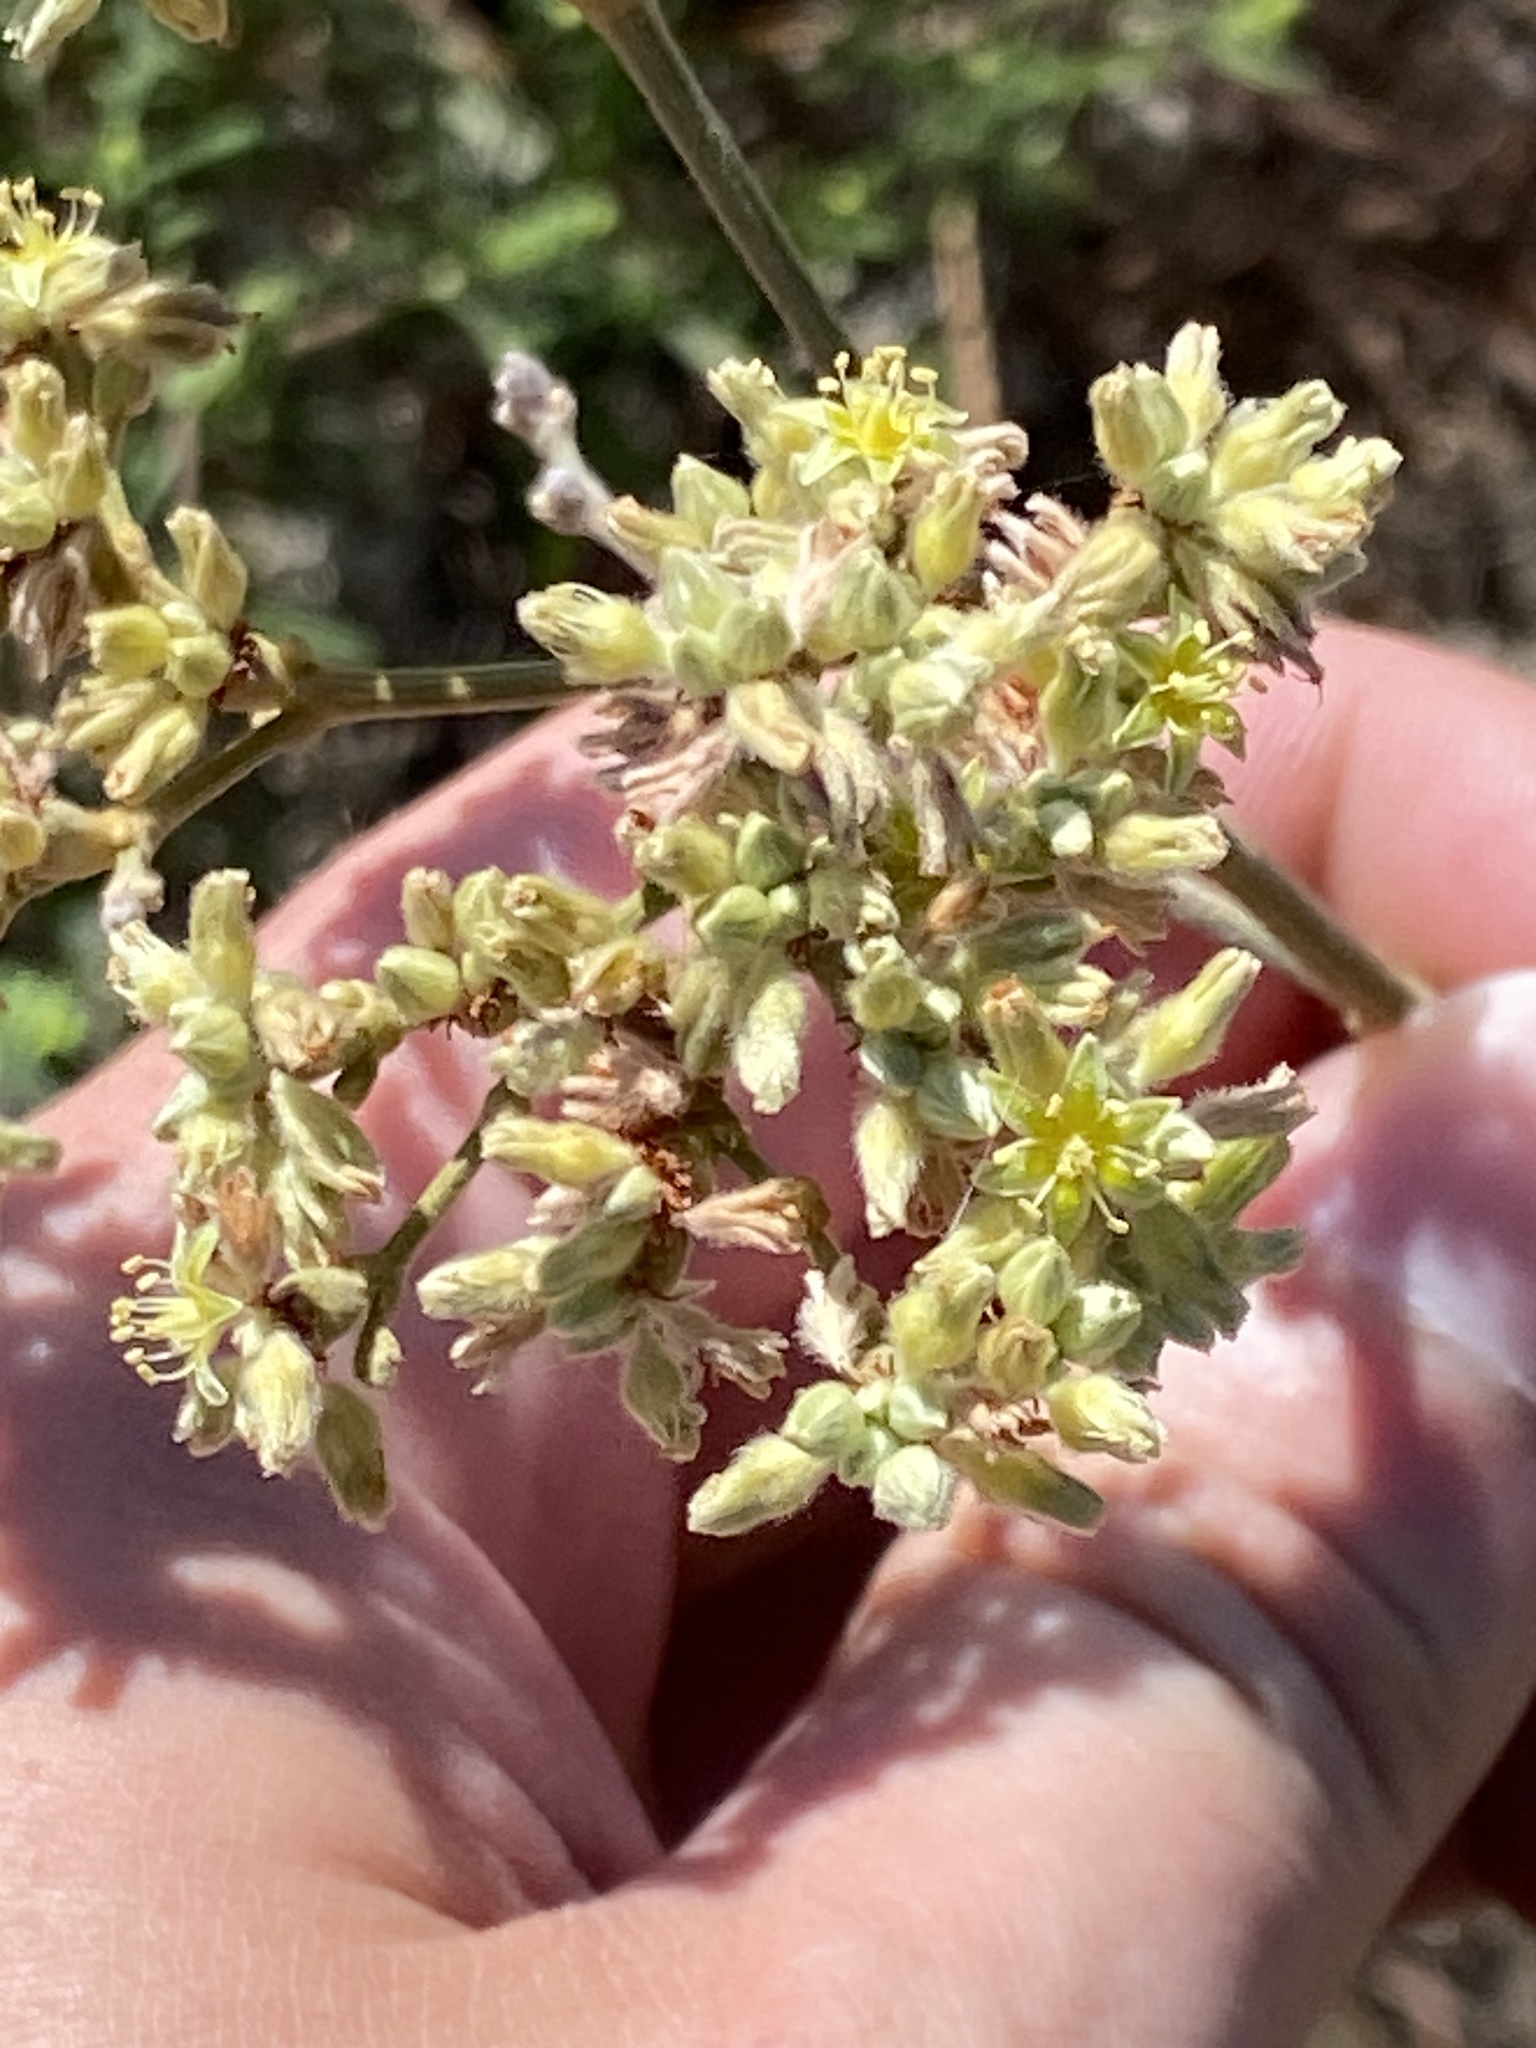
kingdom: Plantae
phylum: Tracheophyta
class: Magnoliopsida
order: Caryophyllales
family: Polygonaceae
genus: Eriogonum
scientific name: Eriogonum longifolium
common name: Longleaf wild buckwheat
